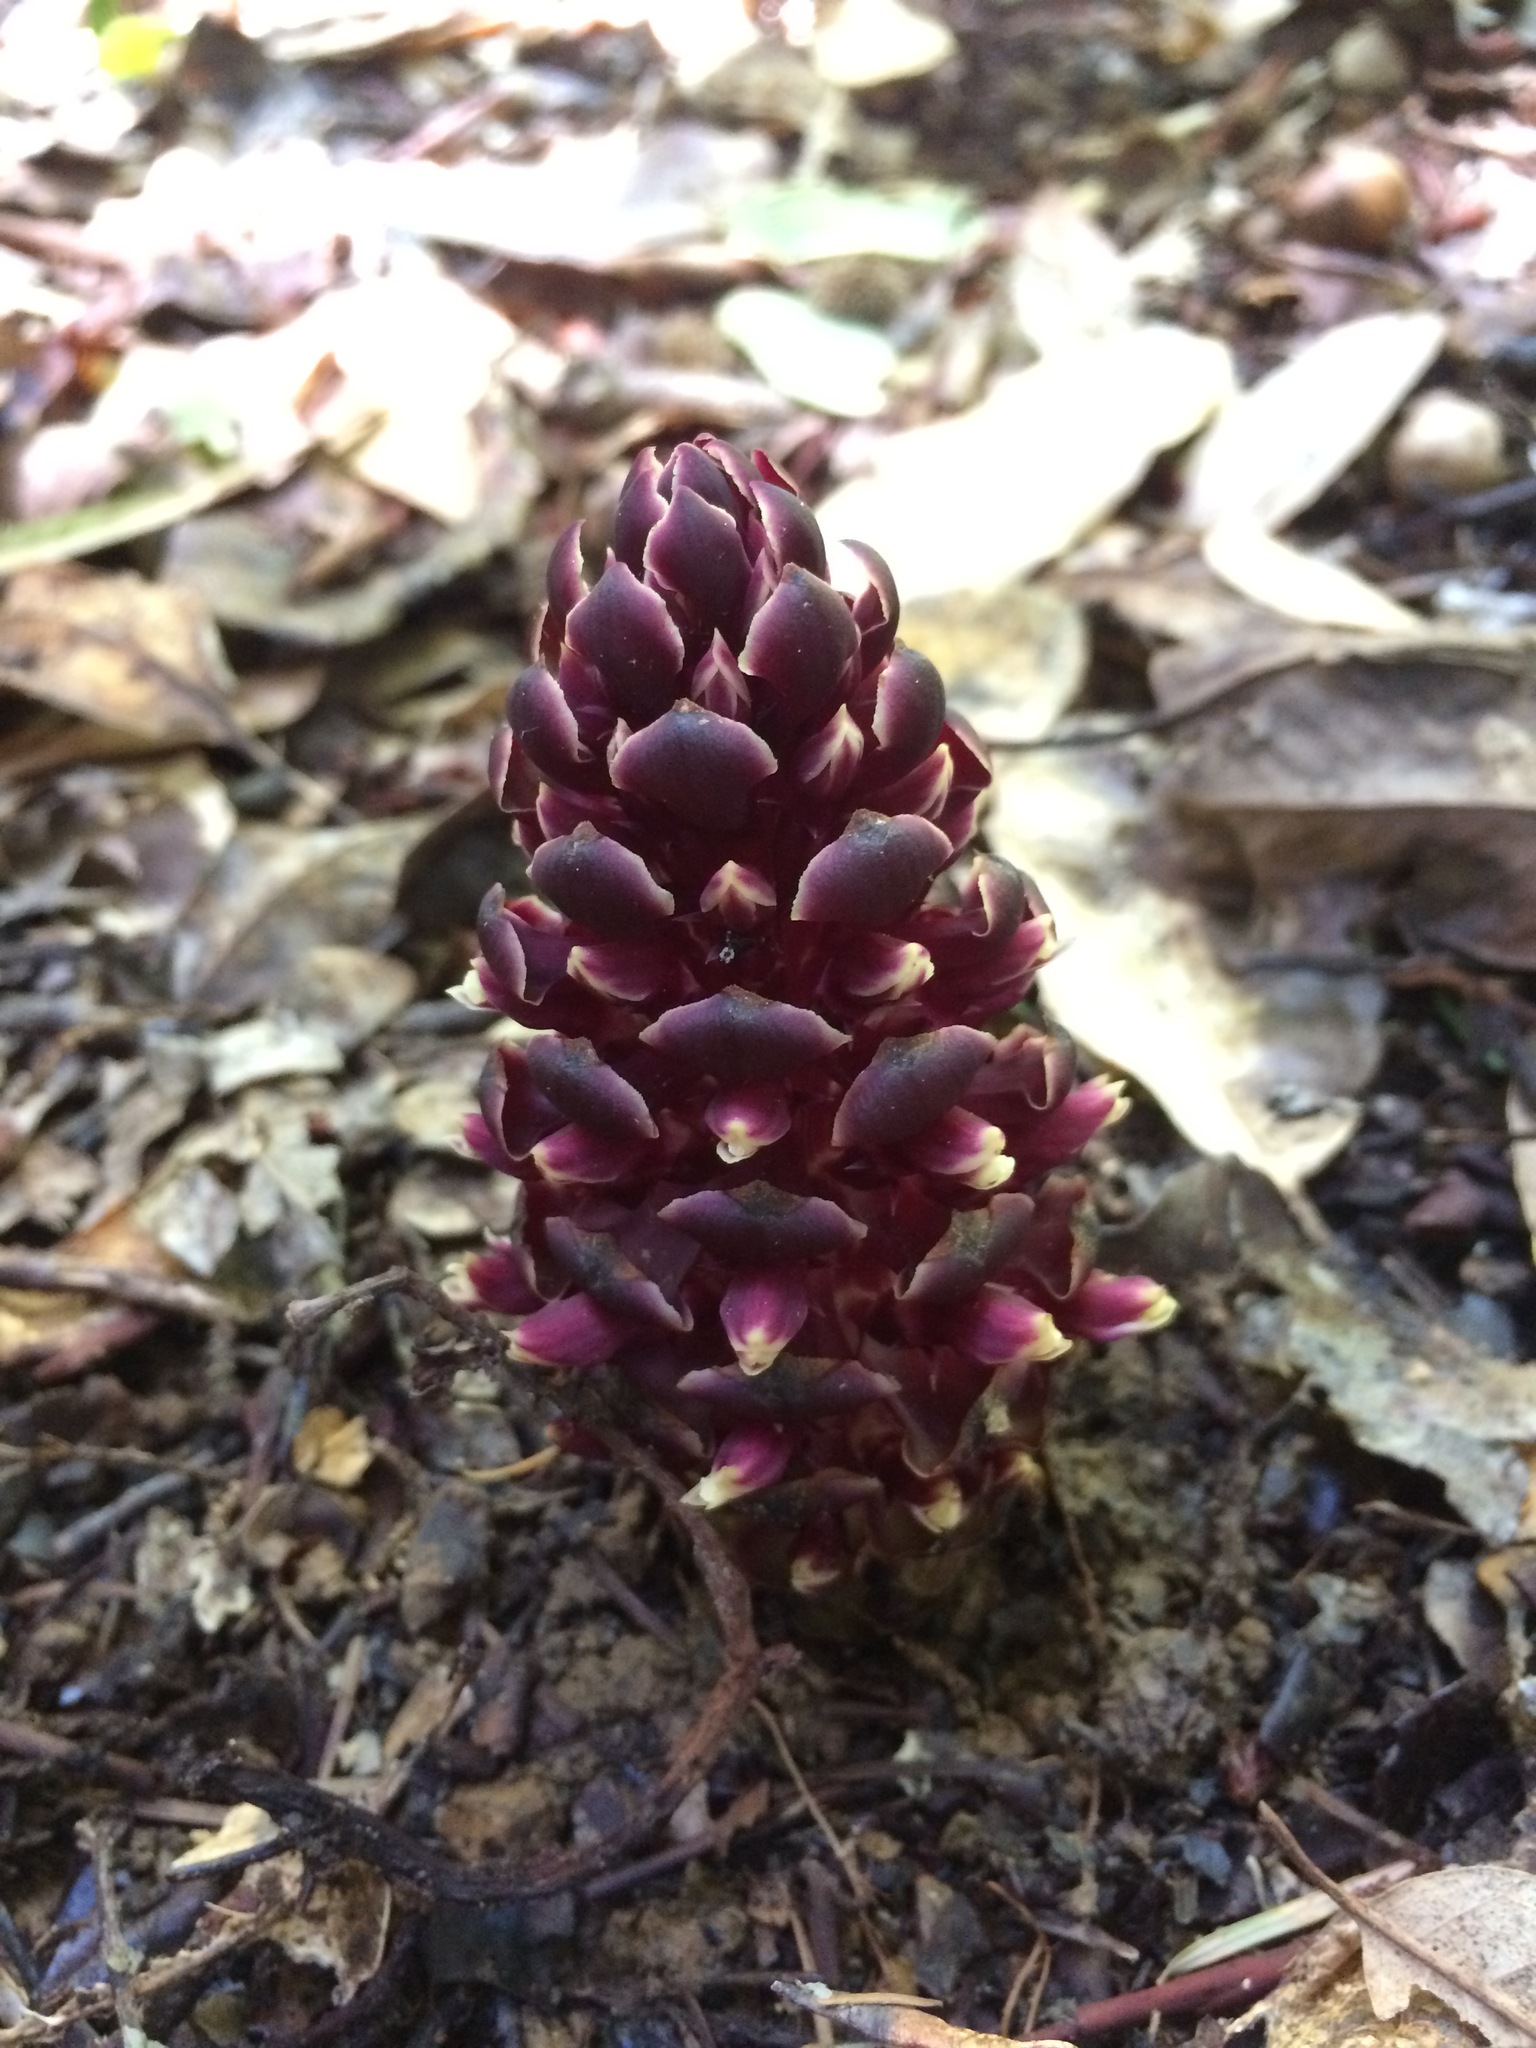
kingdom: Plantae
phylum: Tracheophyta
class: Magnoliopsida
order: Lamiales
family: Orobanchaceae
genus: Kopsiopsis
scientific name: Kopsiopsis strobilacea
